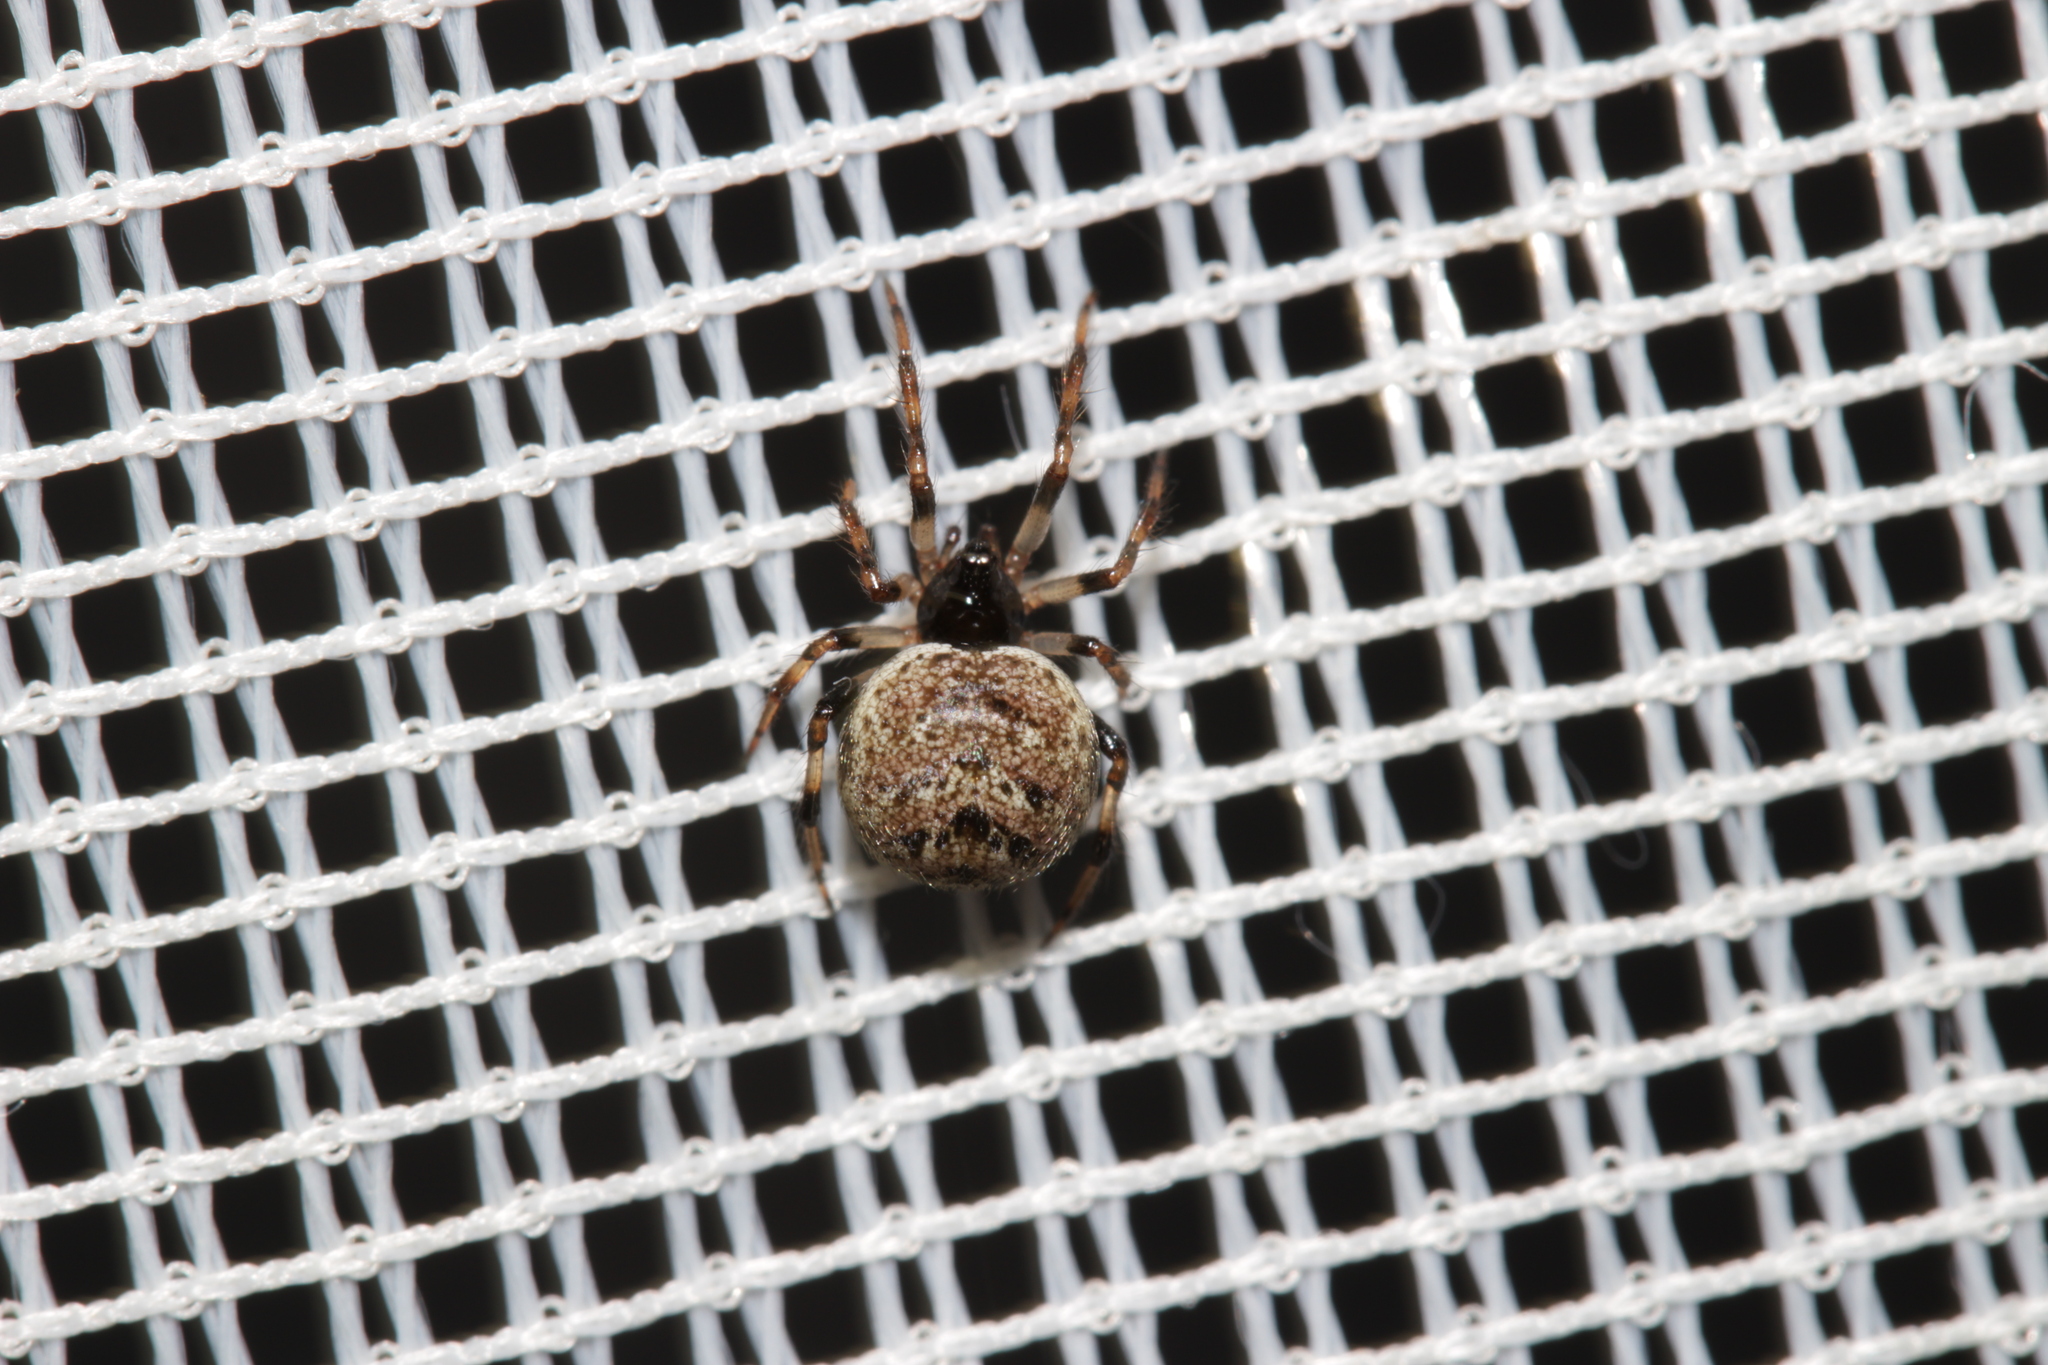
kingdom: Animalia
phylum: Arthropoda
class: Arachnida
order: Araneae
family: Theridiidae
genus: Dipoena
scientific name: Dipoena melanogaster
